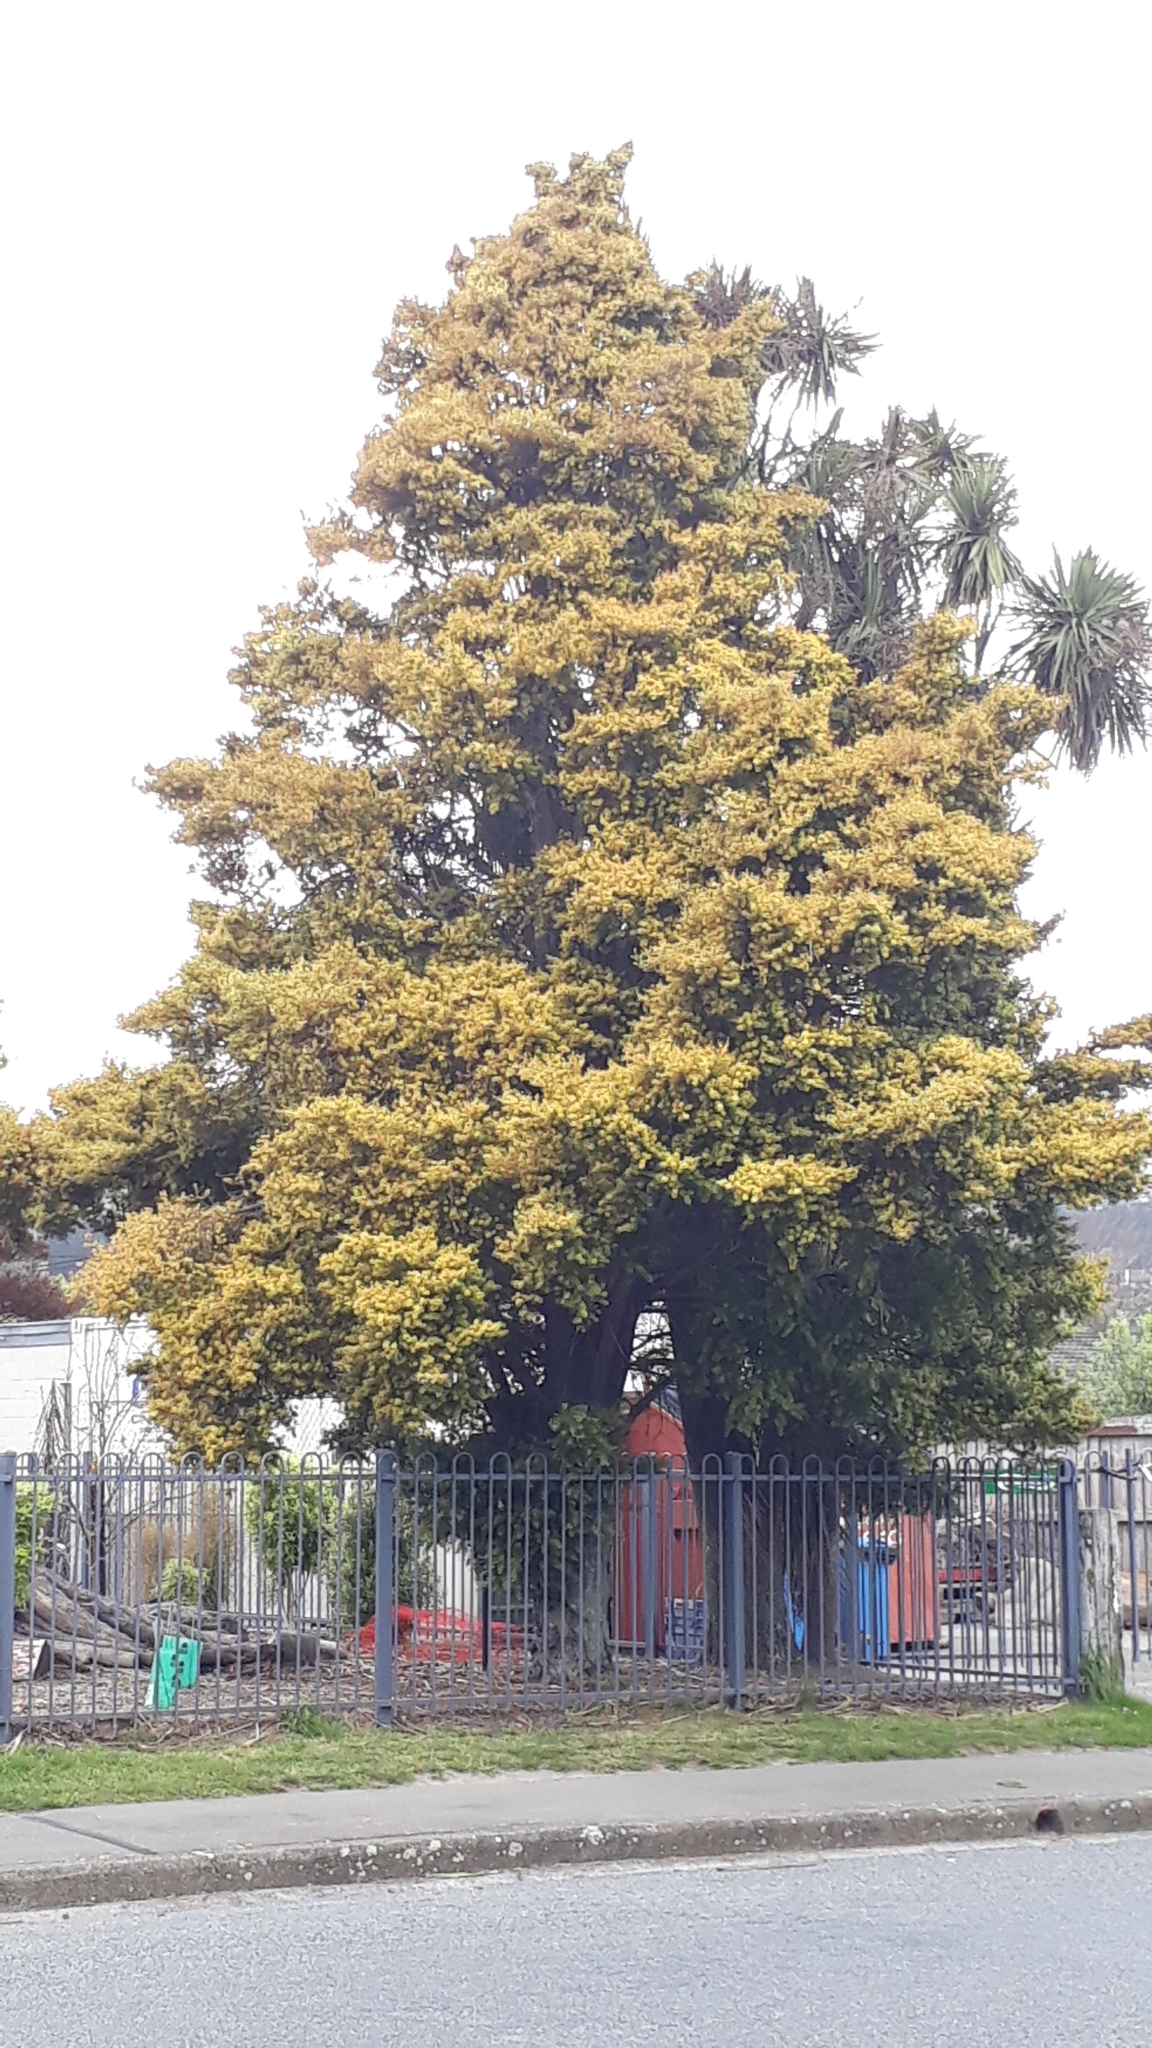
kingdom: Plantae
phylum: Tracheophyta
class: Pinopsida
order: Pinales
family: Podocarpaceae
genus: Podocarpus
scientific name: Podocarpus totara
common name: Totara
